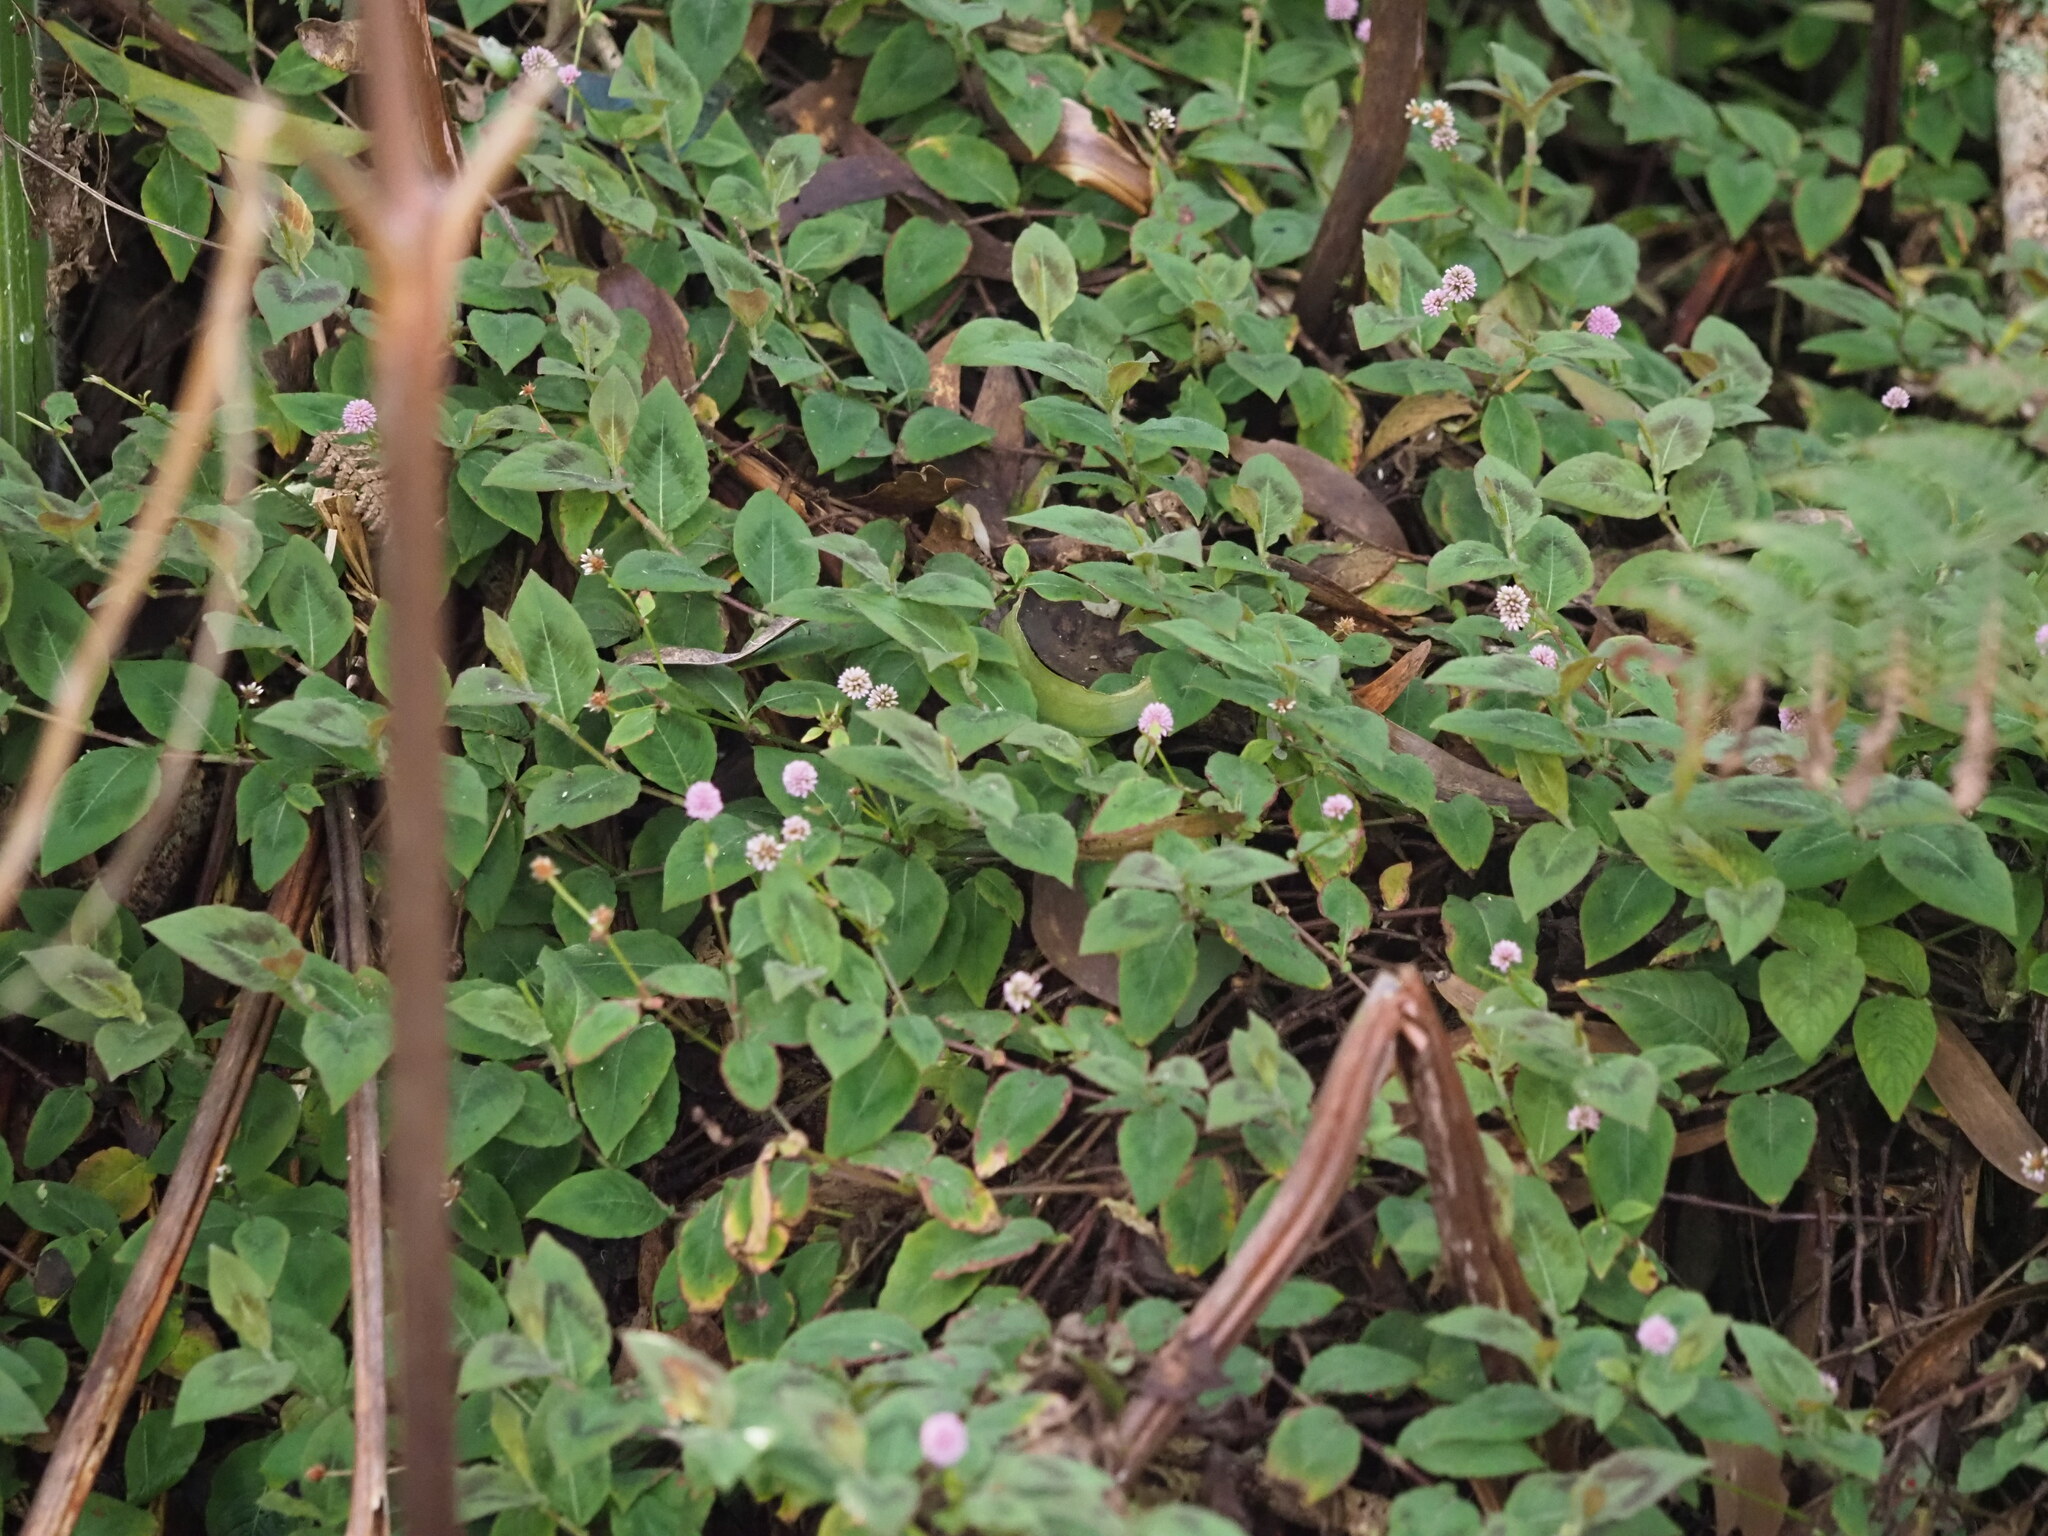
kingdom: Plantae
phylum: Tracheophyta
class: Magnoliopsida
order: Caryophyllales
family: Polygonaceae
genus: Persicaria
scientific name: Persicaria capitata
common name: Pinkhead smartweed
